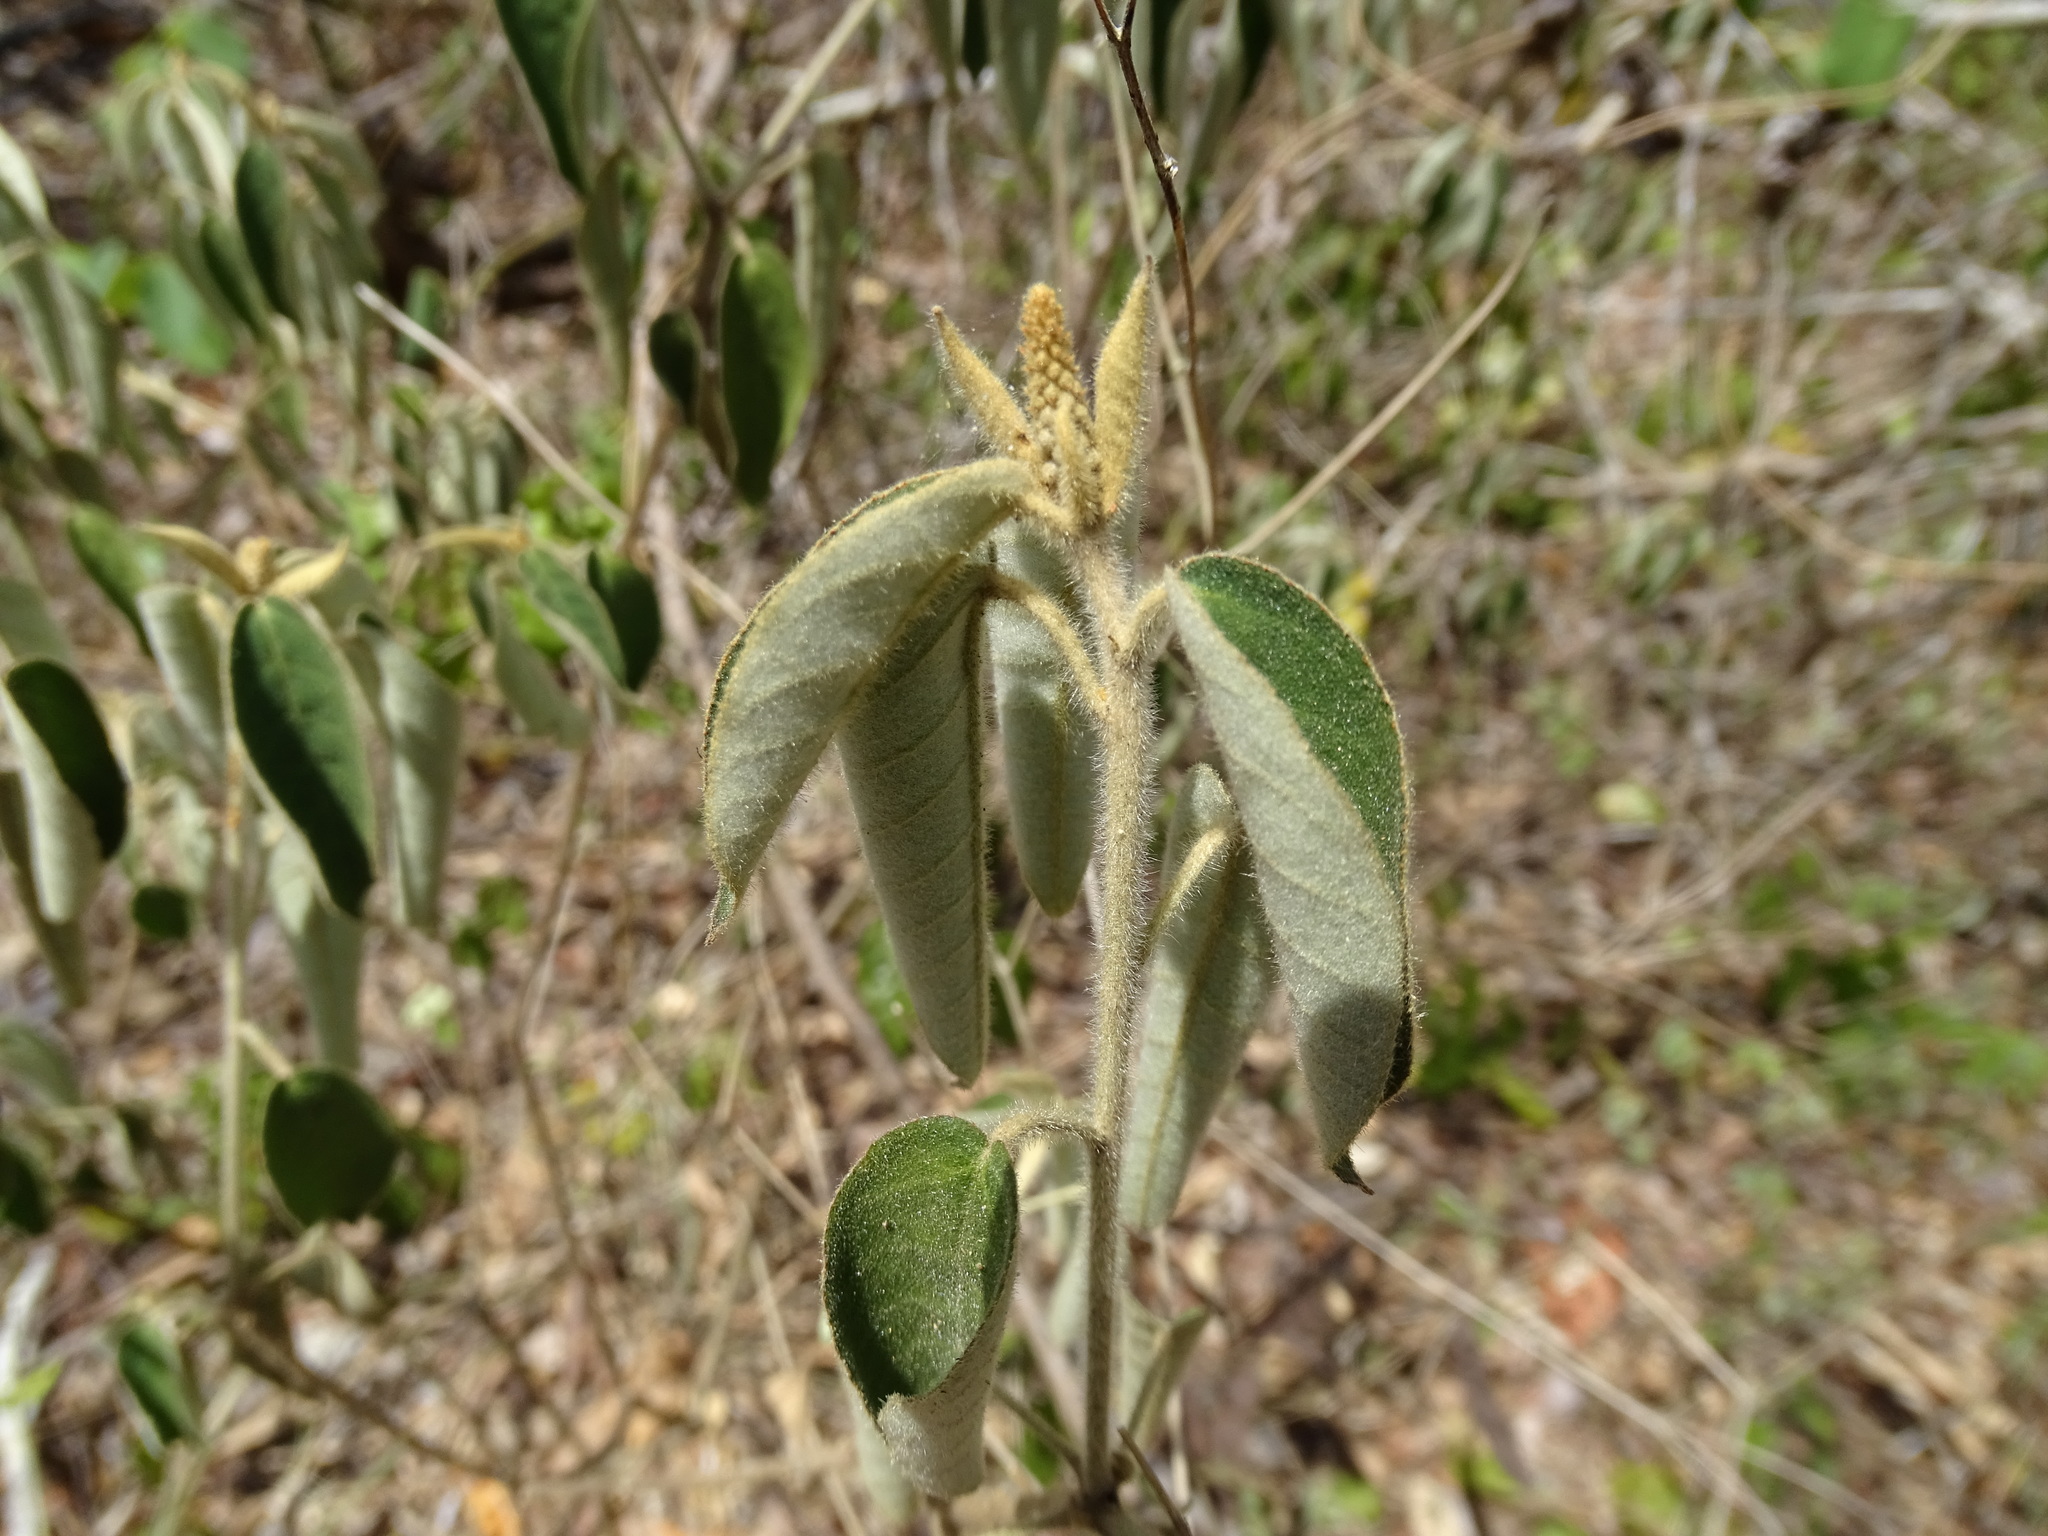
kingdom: Plantae
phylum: Tracheophyta
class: Magnoliopsida
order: Malpighiales
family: Euphorbiaceae
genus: Croton
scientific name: Croton cortesianus
